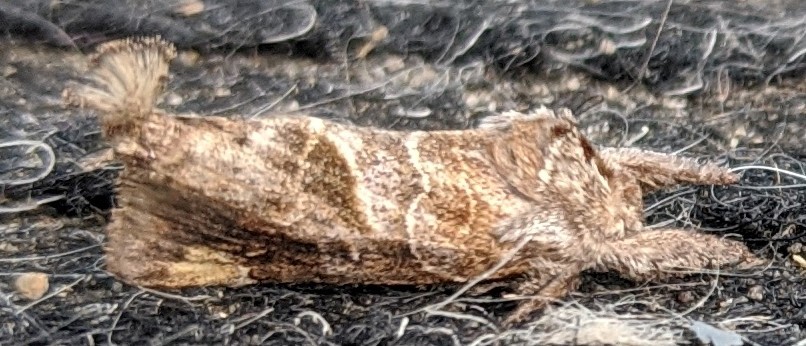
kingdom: Animalia
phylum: Arthropoda
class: Insecta
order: Lepidoptera
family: Notodontidae
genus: Clostera
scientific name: Clostera strigosa
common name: Striped chocolate-tip moth
